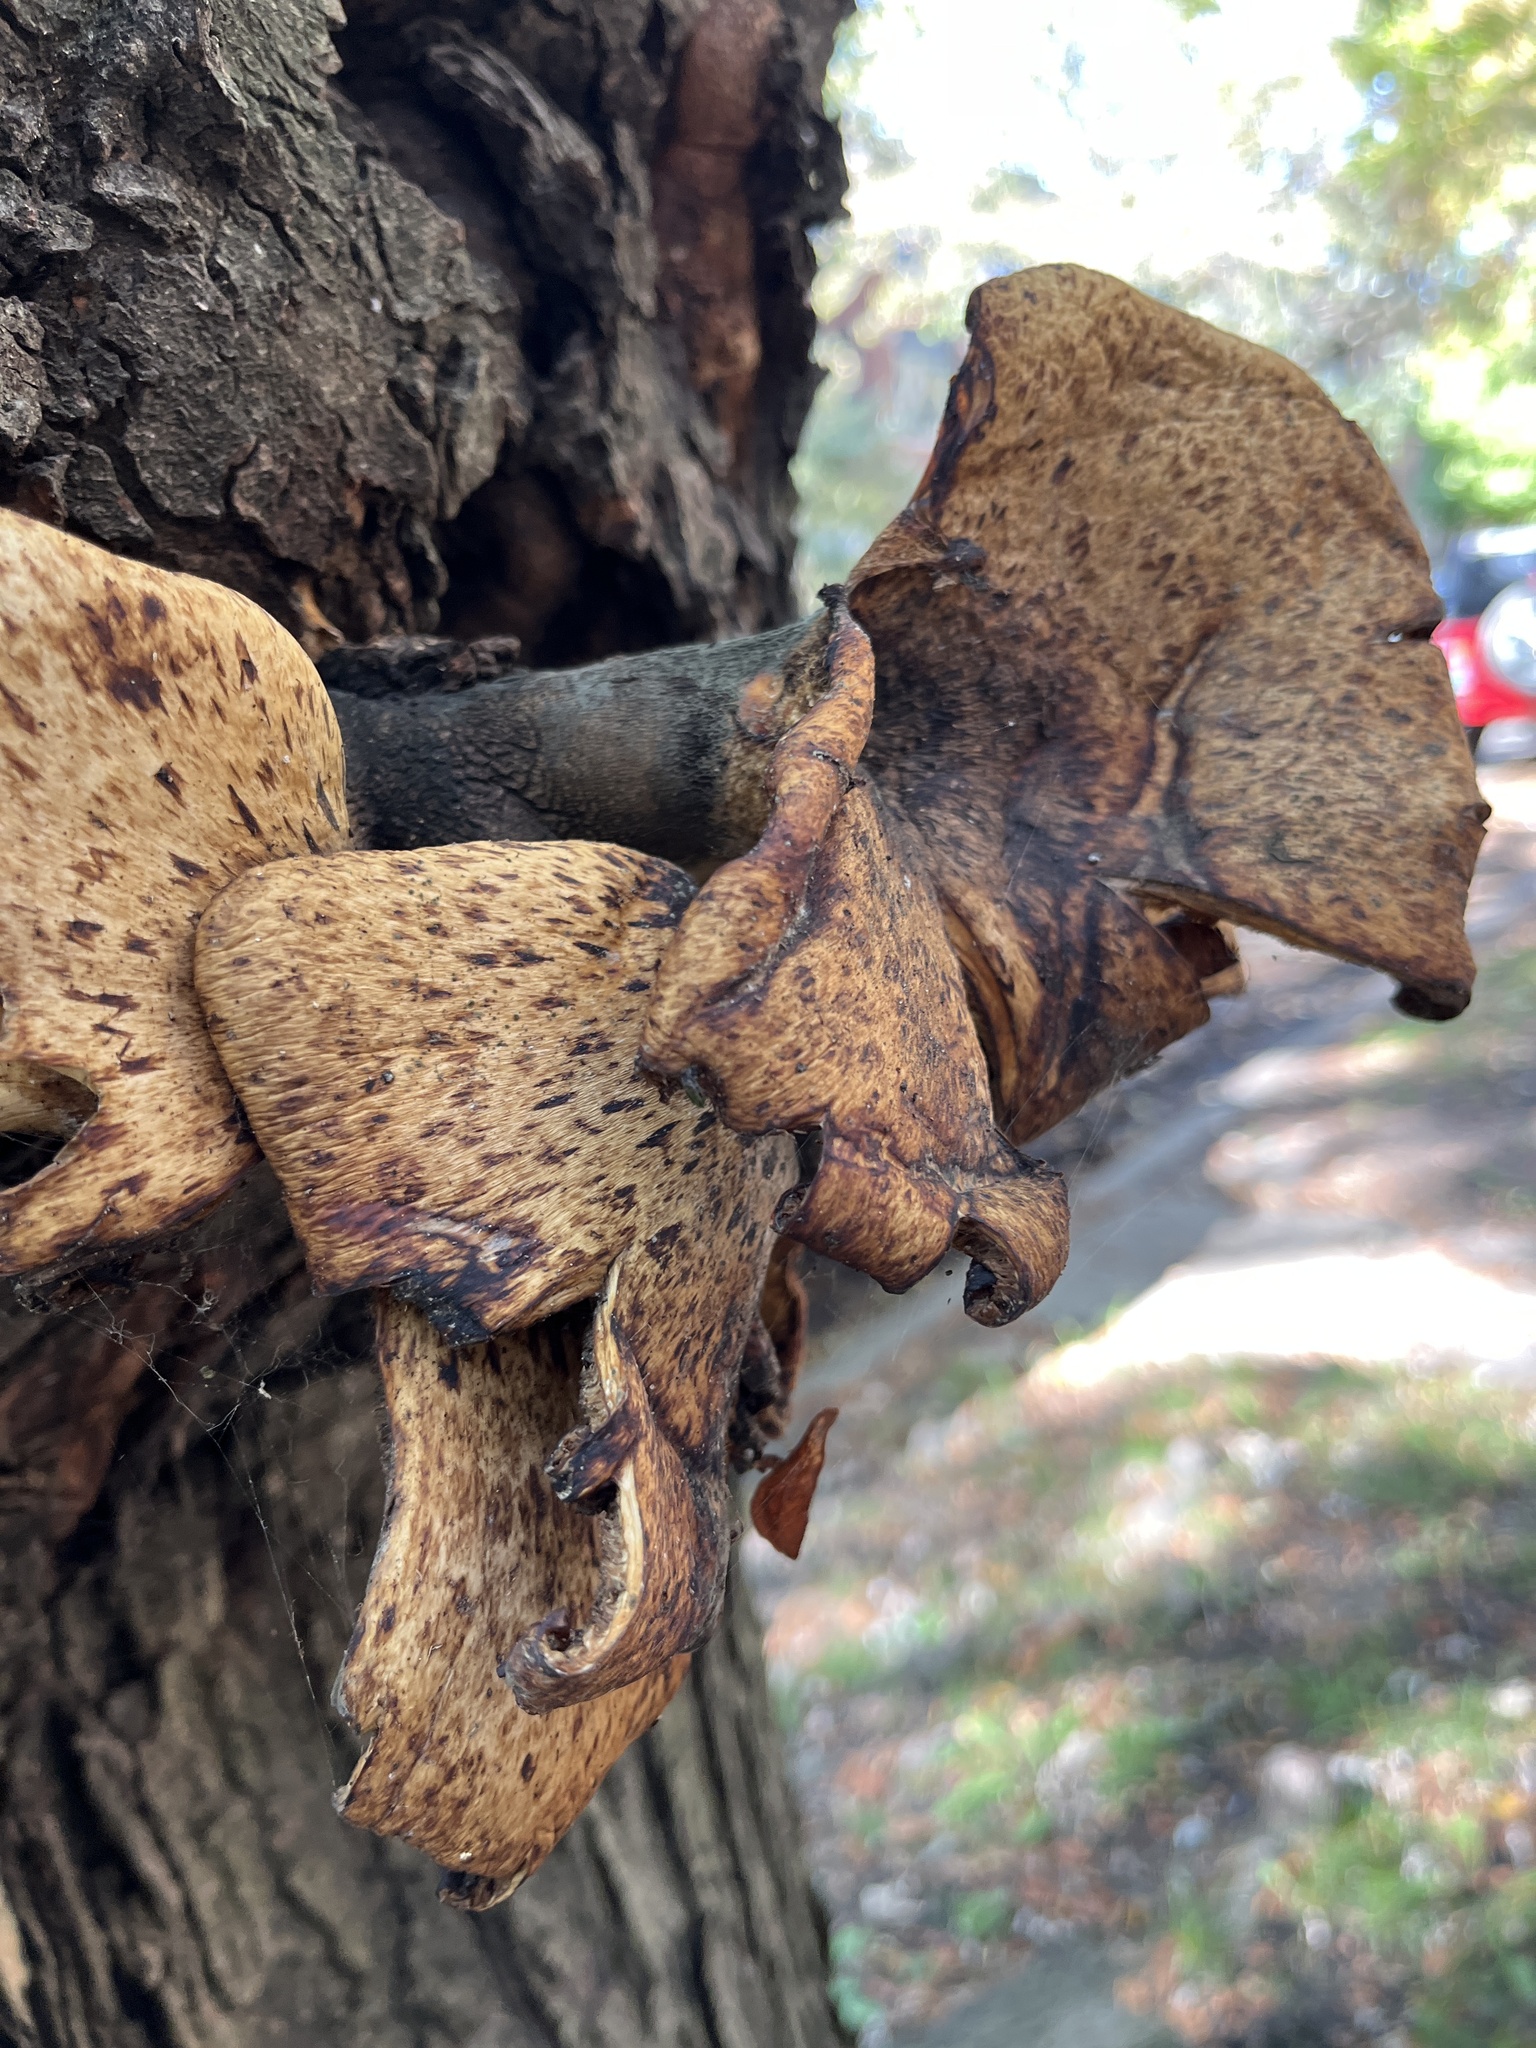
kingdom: Fungi
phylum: Basidiomycota
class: Agaricomycetes
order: Polyporales
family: Polyporaceae
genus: Cerioporus
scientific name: Cerioporus squamosus
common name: Dryad's saddle
